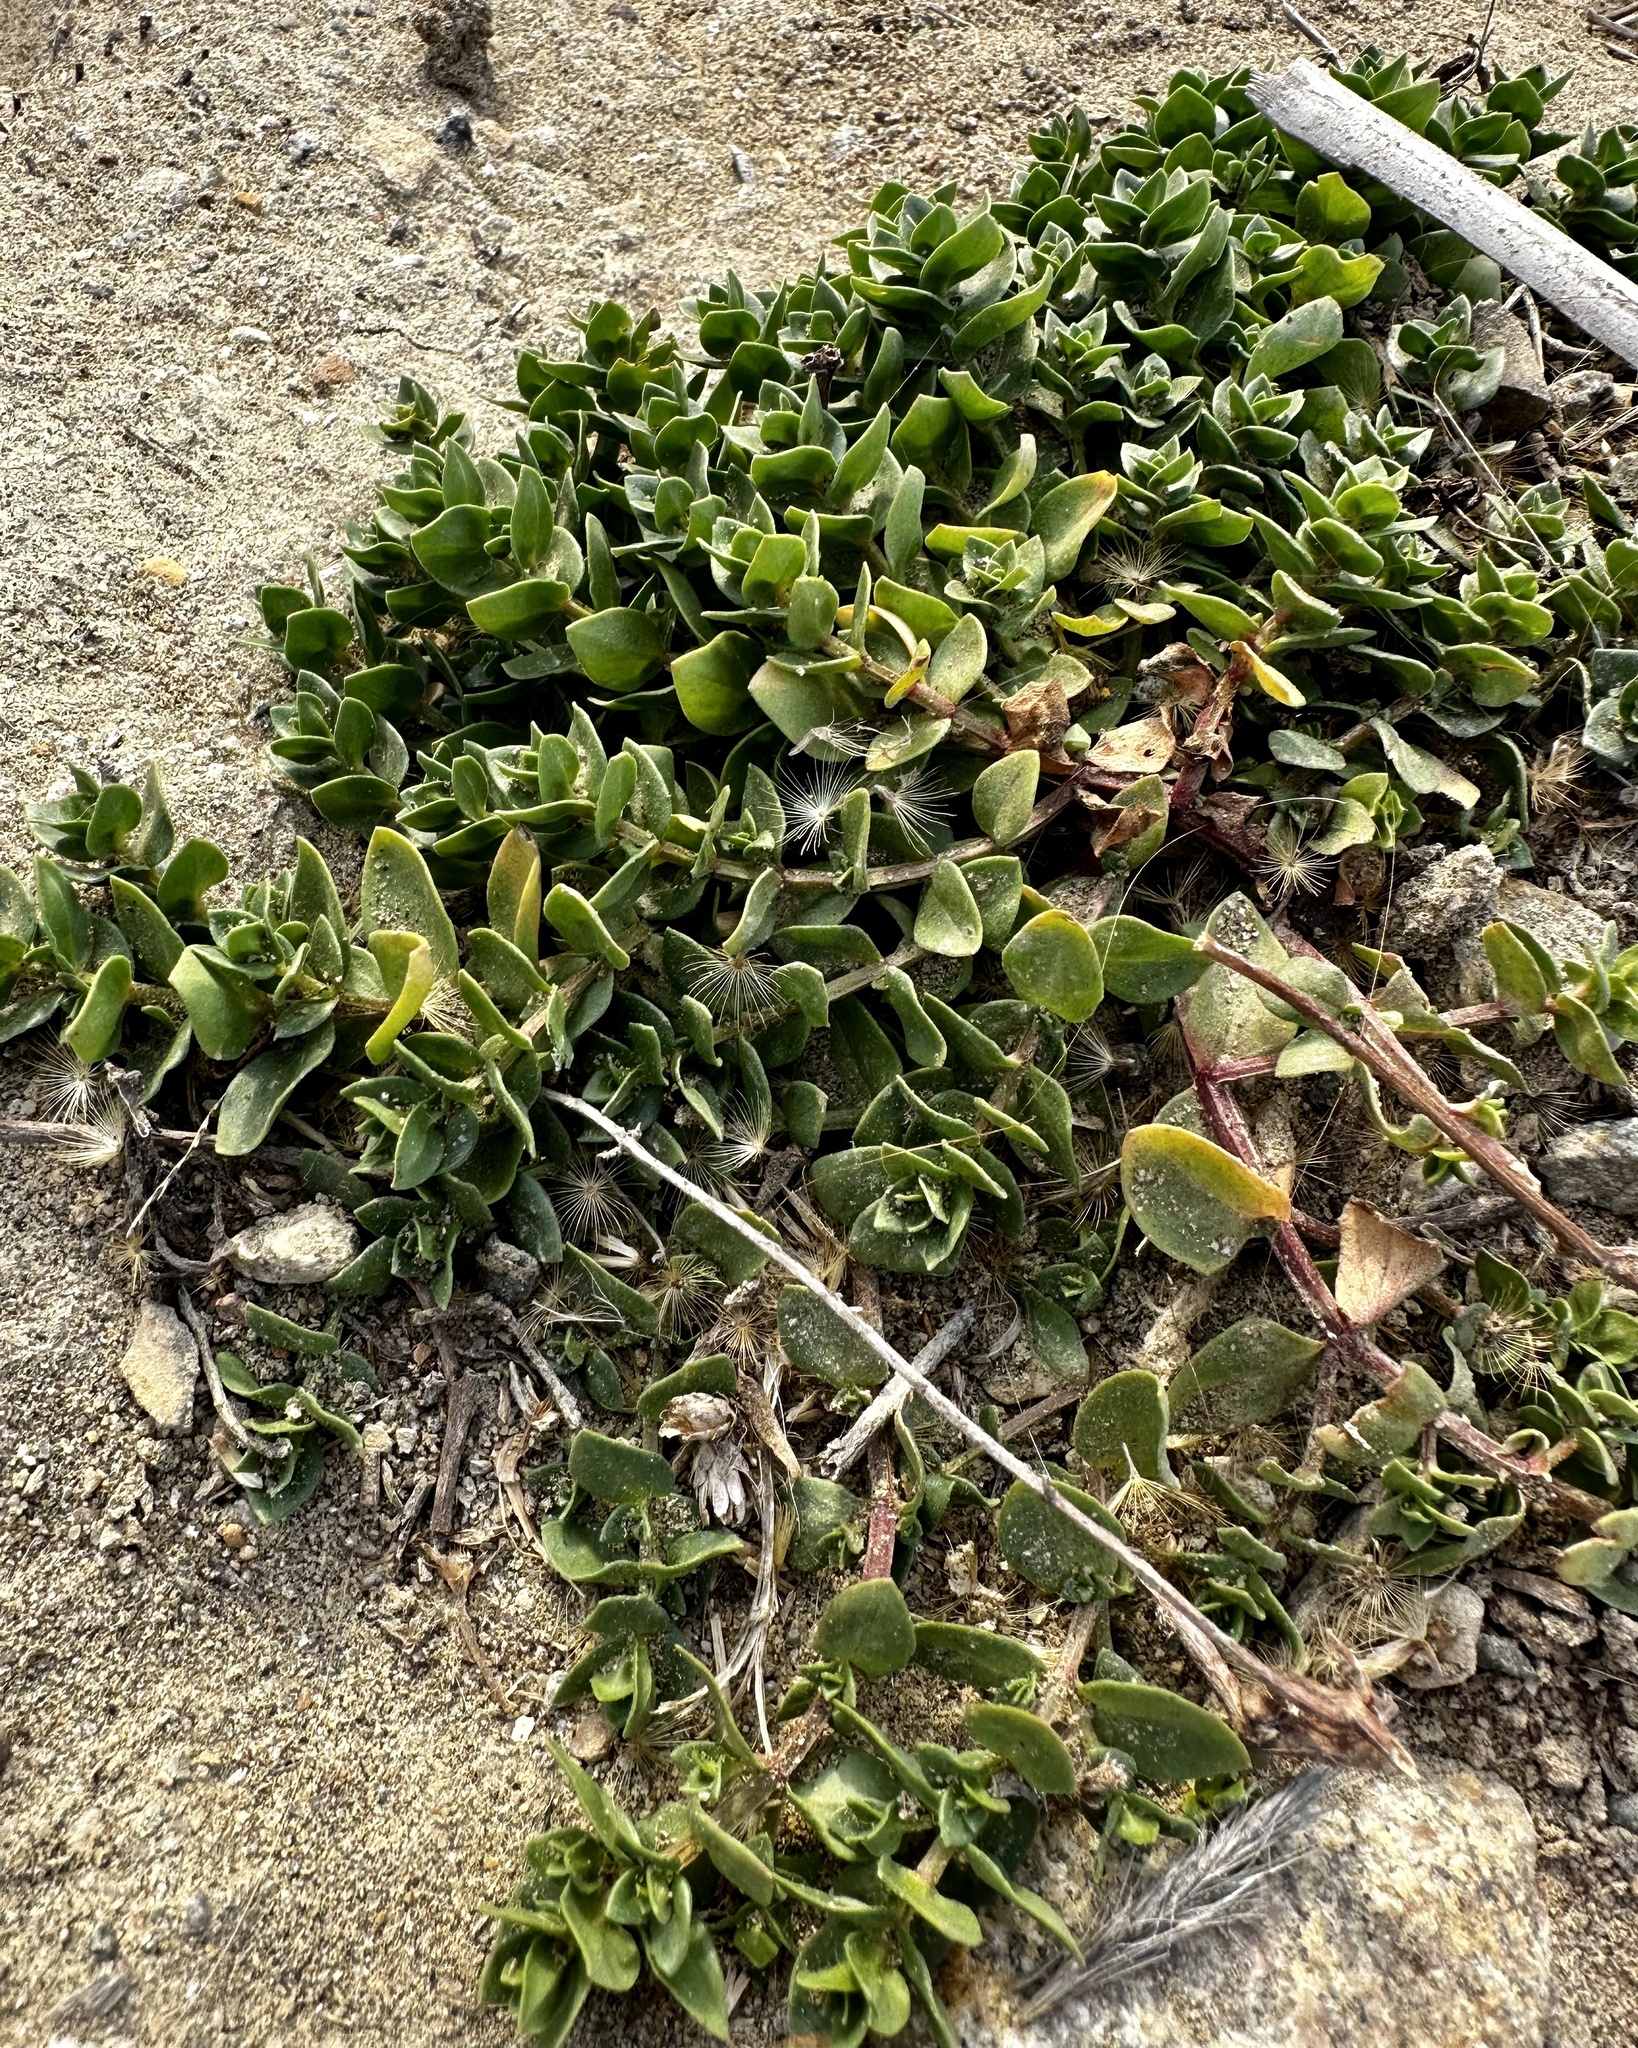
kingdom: Plantae
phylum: Tracheophyta
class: Magnoliopsida
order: Ericales
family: Primulaceae
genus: Lysimachia
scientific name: Lysimachia arvensis
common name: Scarlet pimpernel
